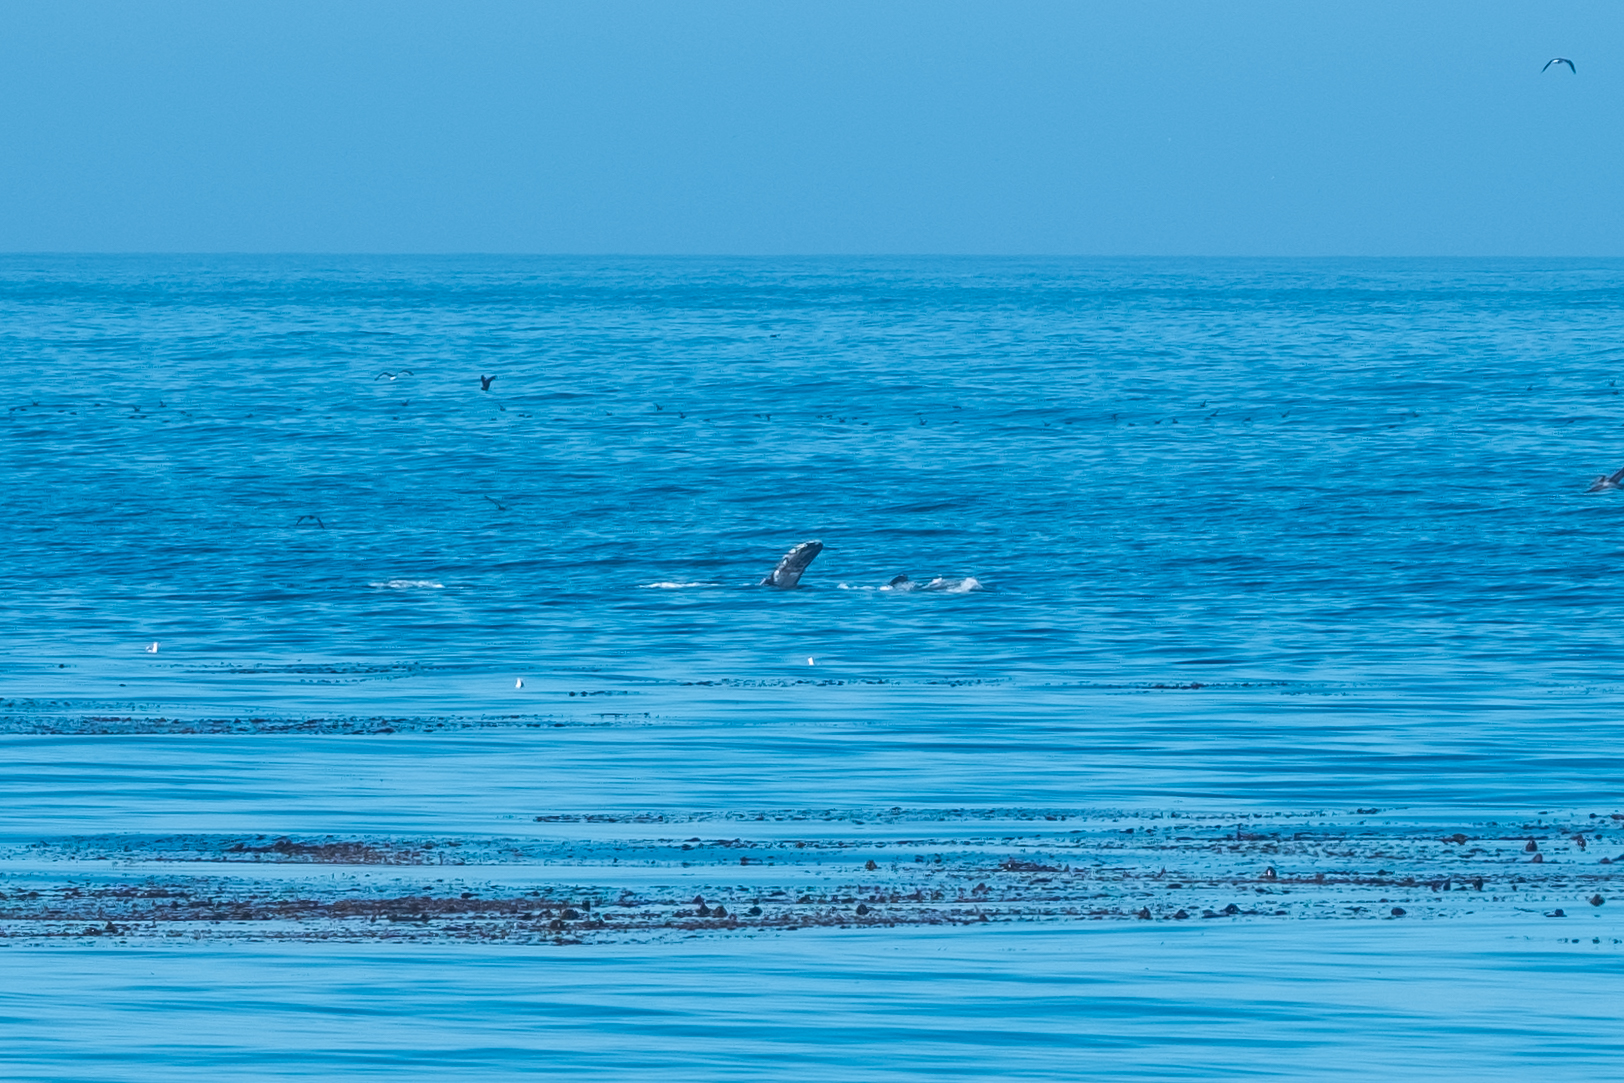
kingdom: Animalia
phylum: Chordata
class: Mammalia
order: Cetacea
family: Balaenopteridae
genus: Megaptera
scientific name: Megaptera novaeangliae
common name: Humpback whale
